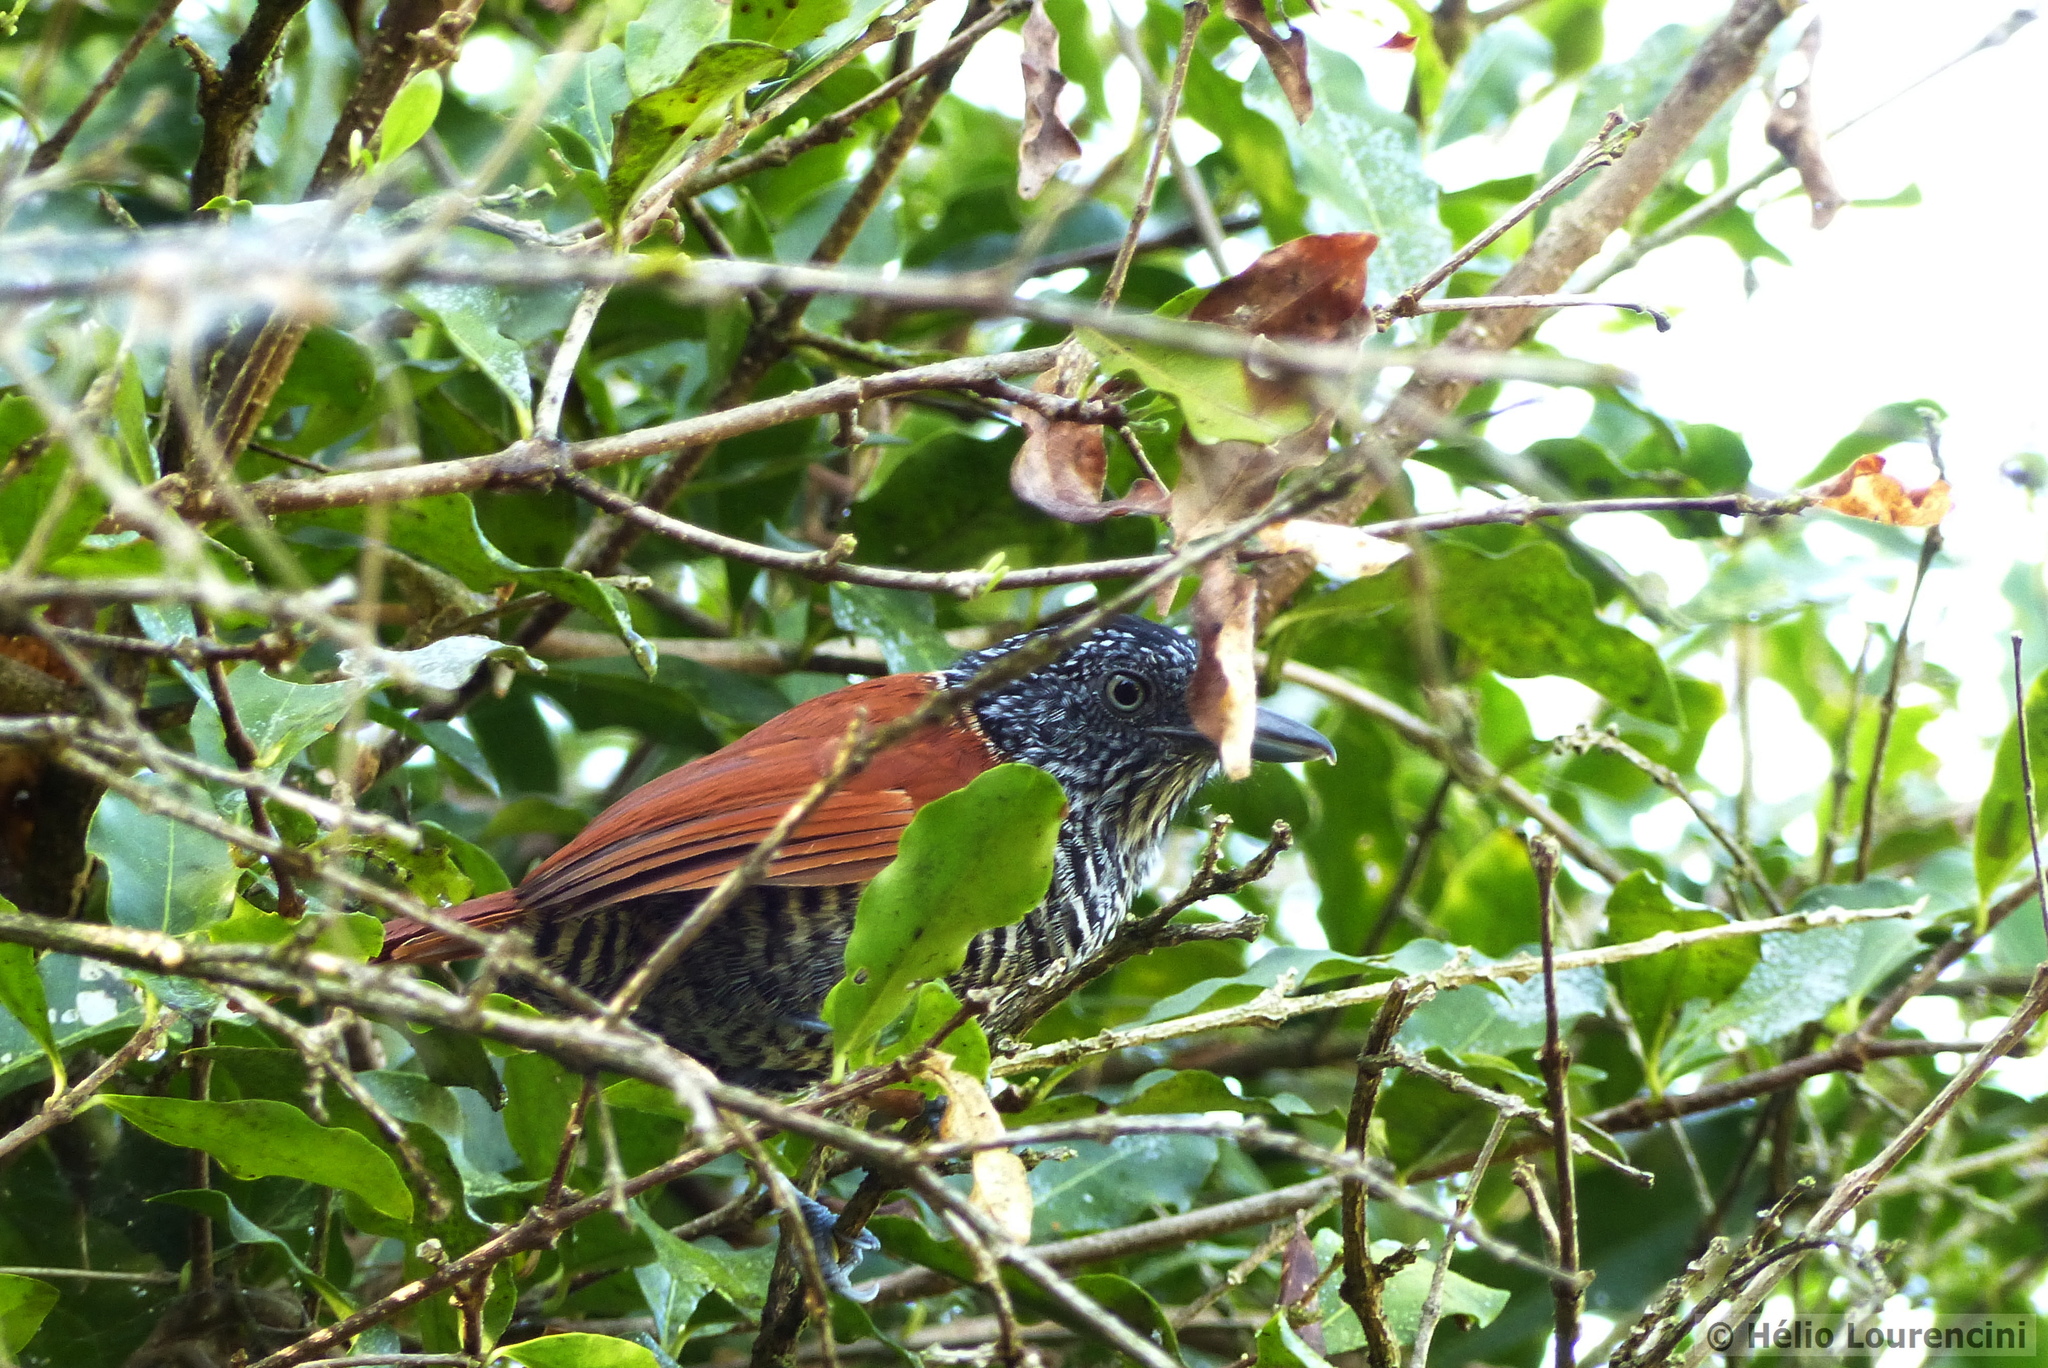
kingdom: Animalia
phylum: Chordata
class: Aves
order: Passeriformes
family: Thamnophilidae
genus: Thamnophilus
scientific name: Thamnophilus palliatus
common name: Chestnut-backed antshrike
